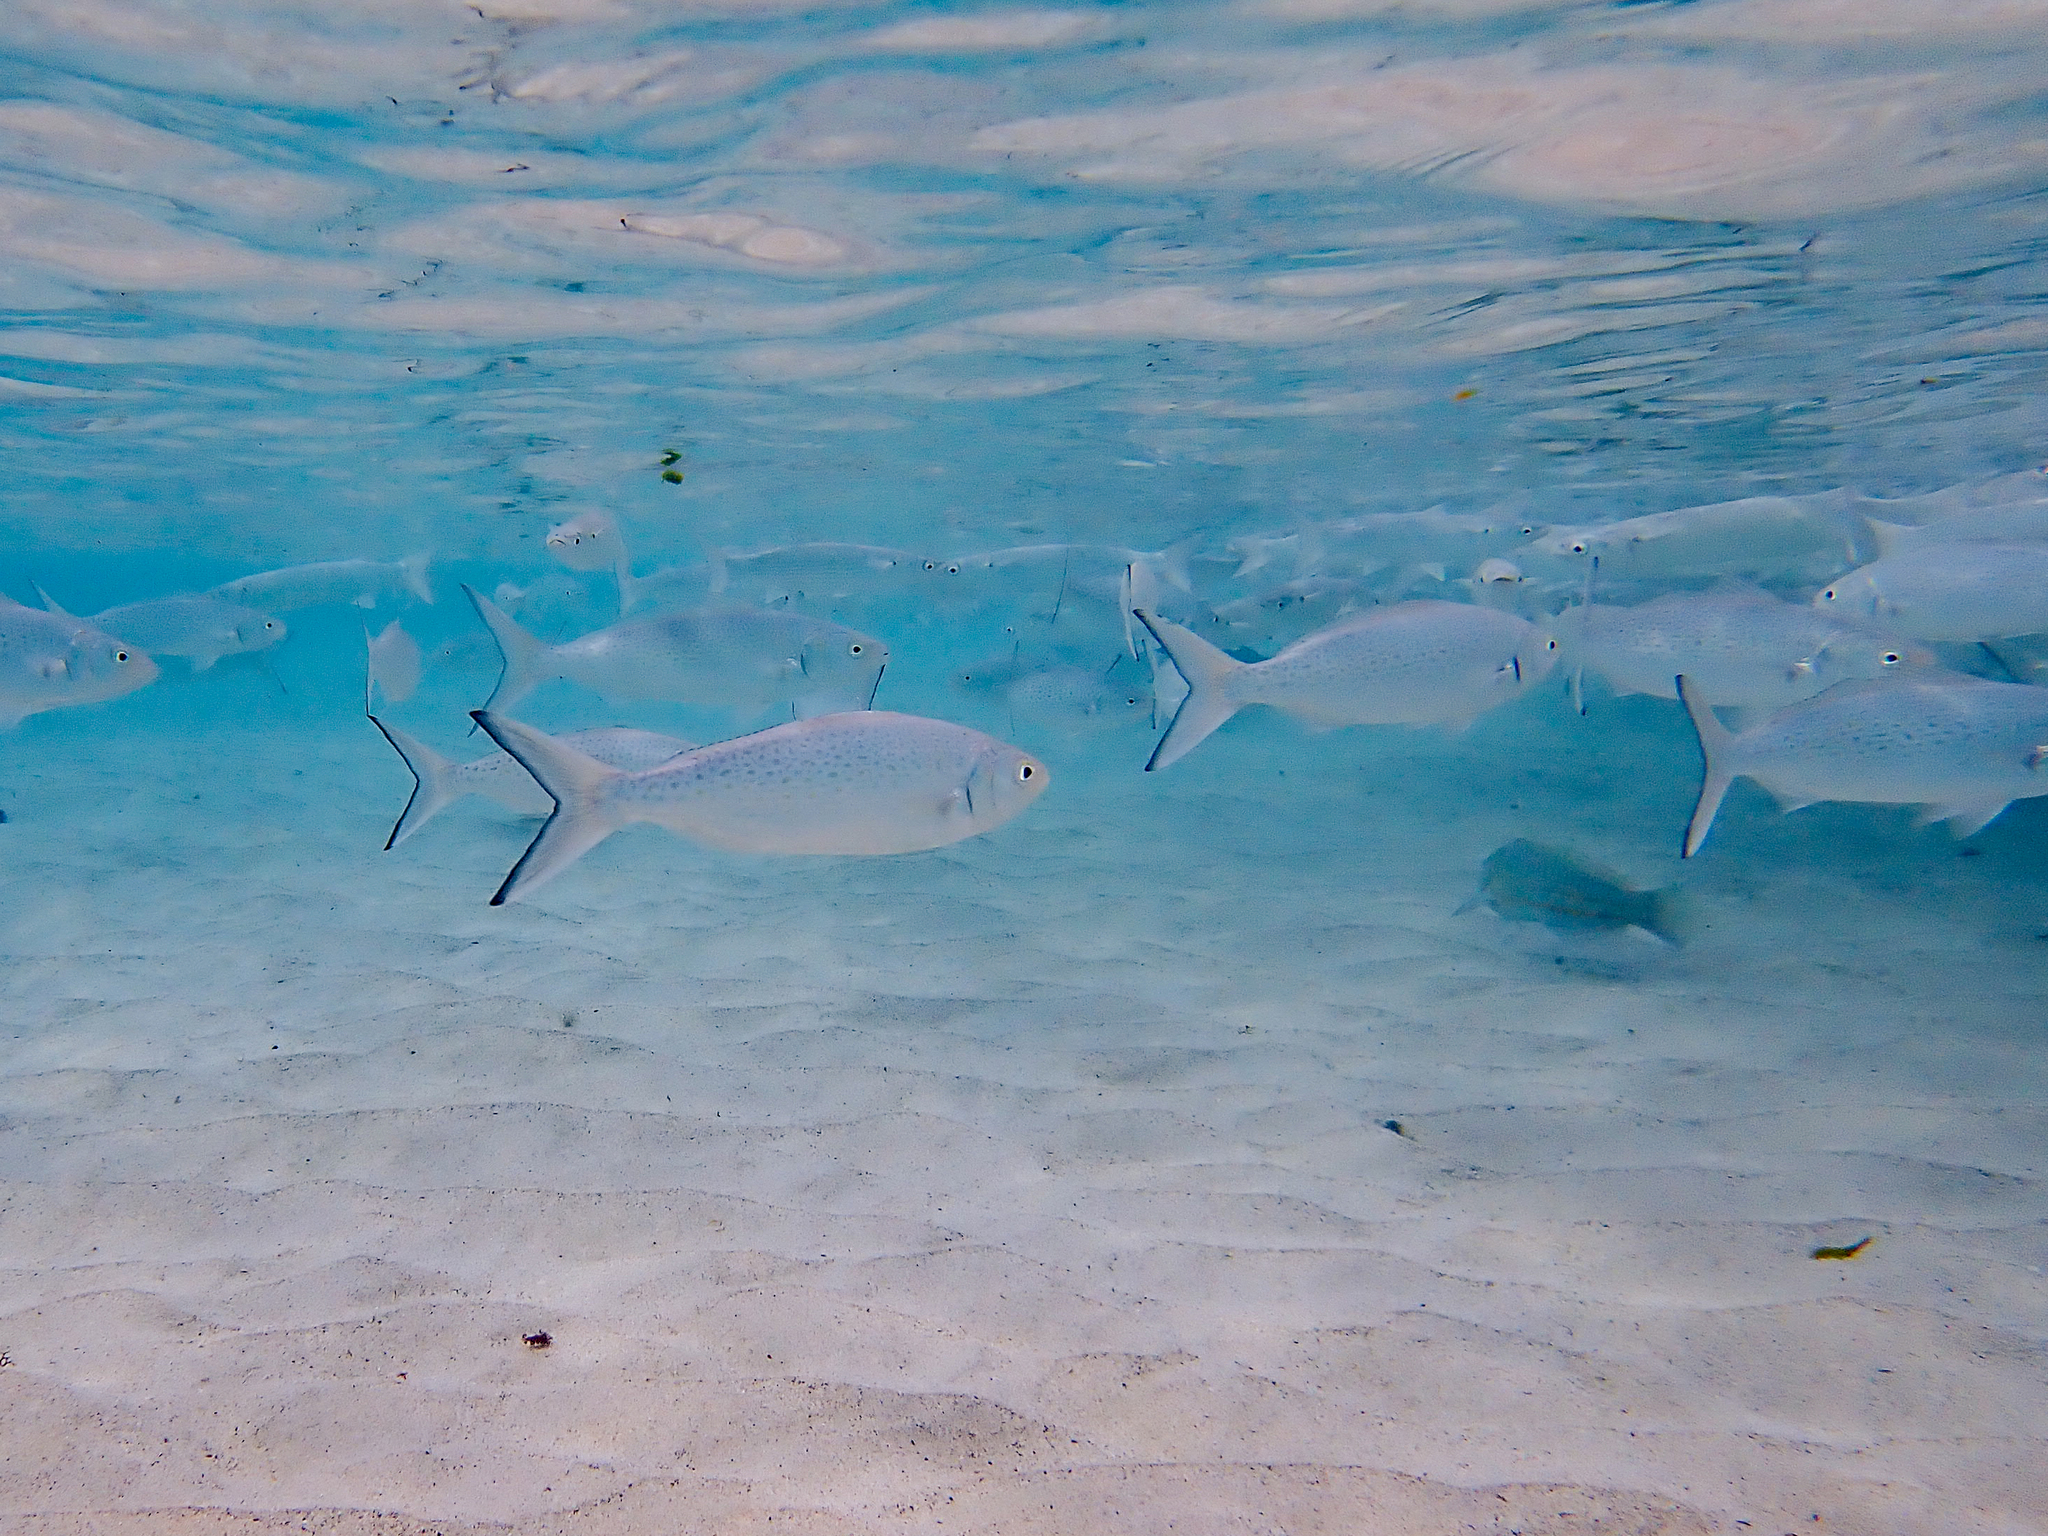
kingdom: Animalia
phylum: Chordata
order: Perciformes
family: Arripidae
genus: Arripis
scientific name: Arripis xylabion
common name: Giant kahawai
